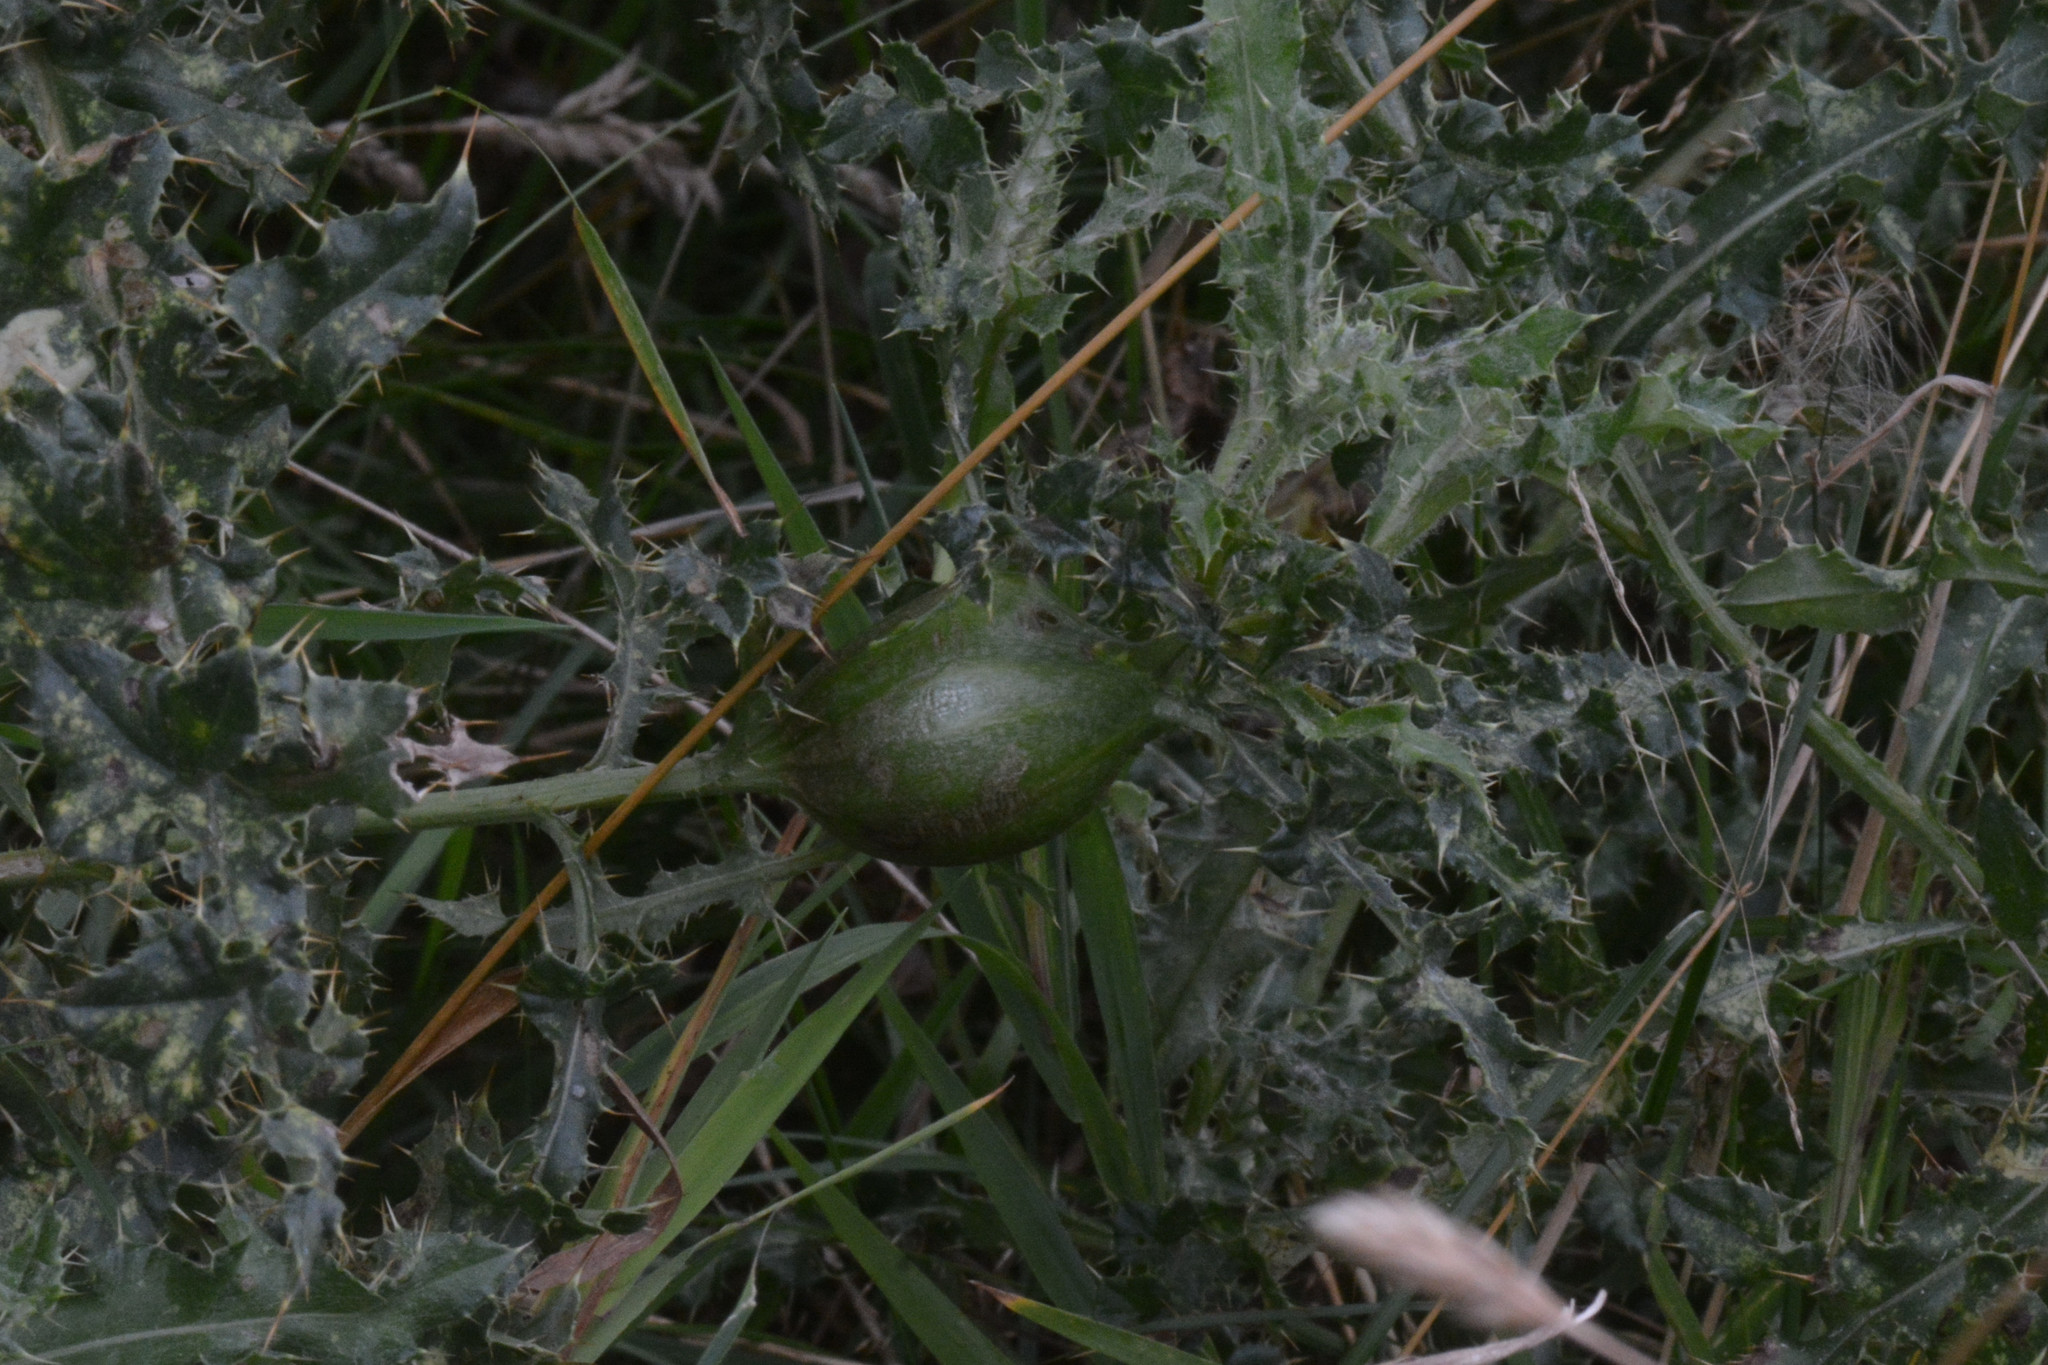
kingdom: Animalia
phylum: Arthropoda
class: Insecta
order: Diptera
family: Tephritidae
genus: Urophora
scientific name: Urophora cardui
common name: Fruit fly
